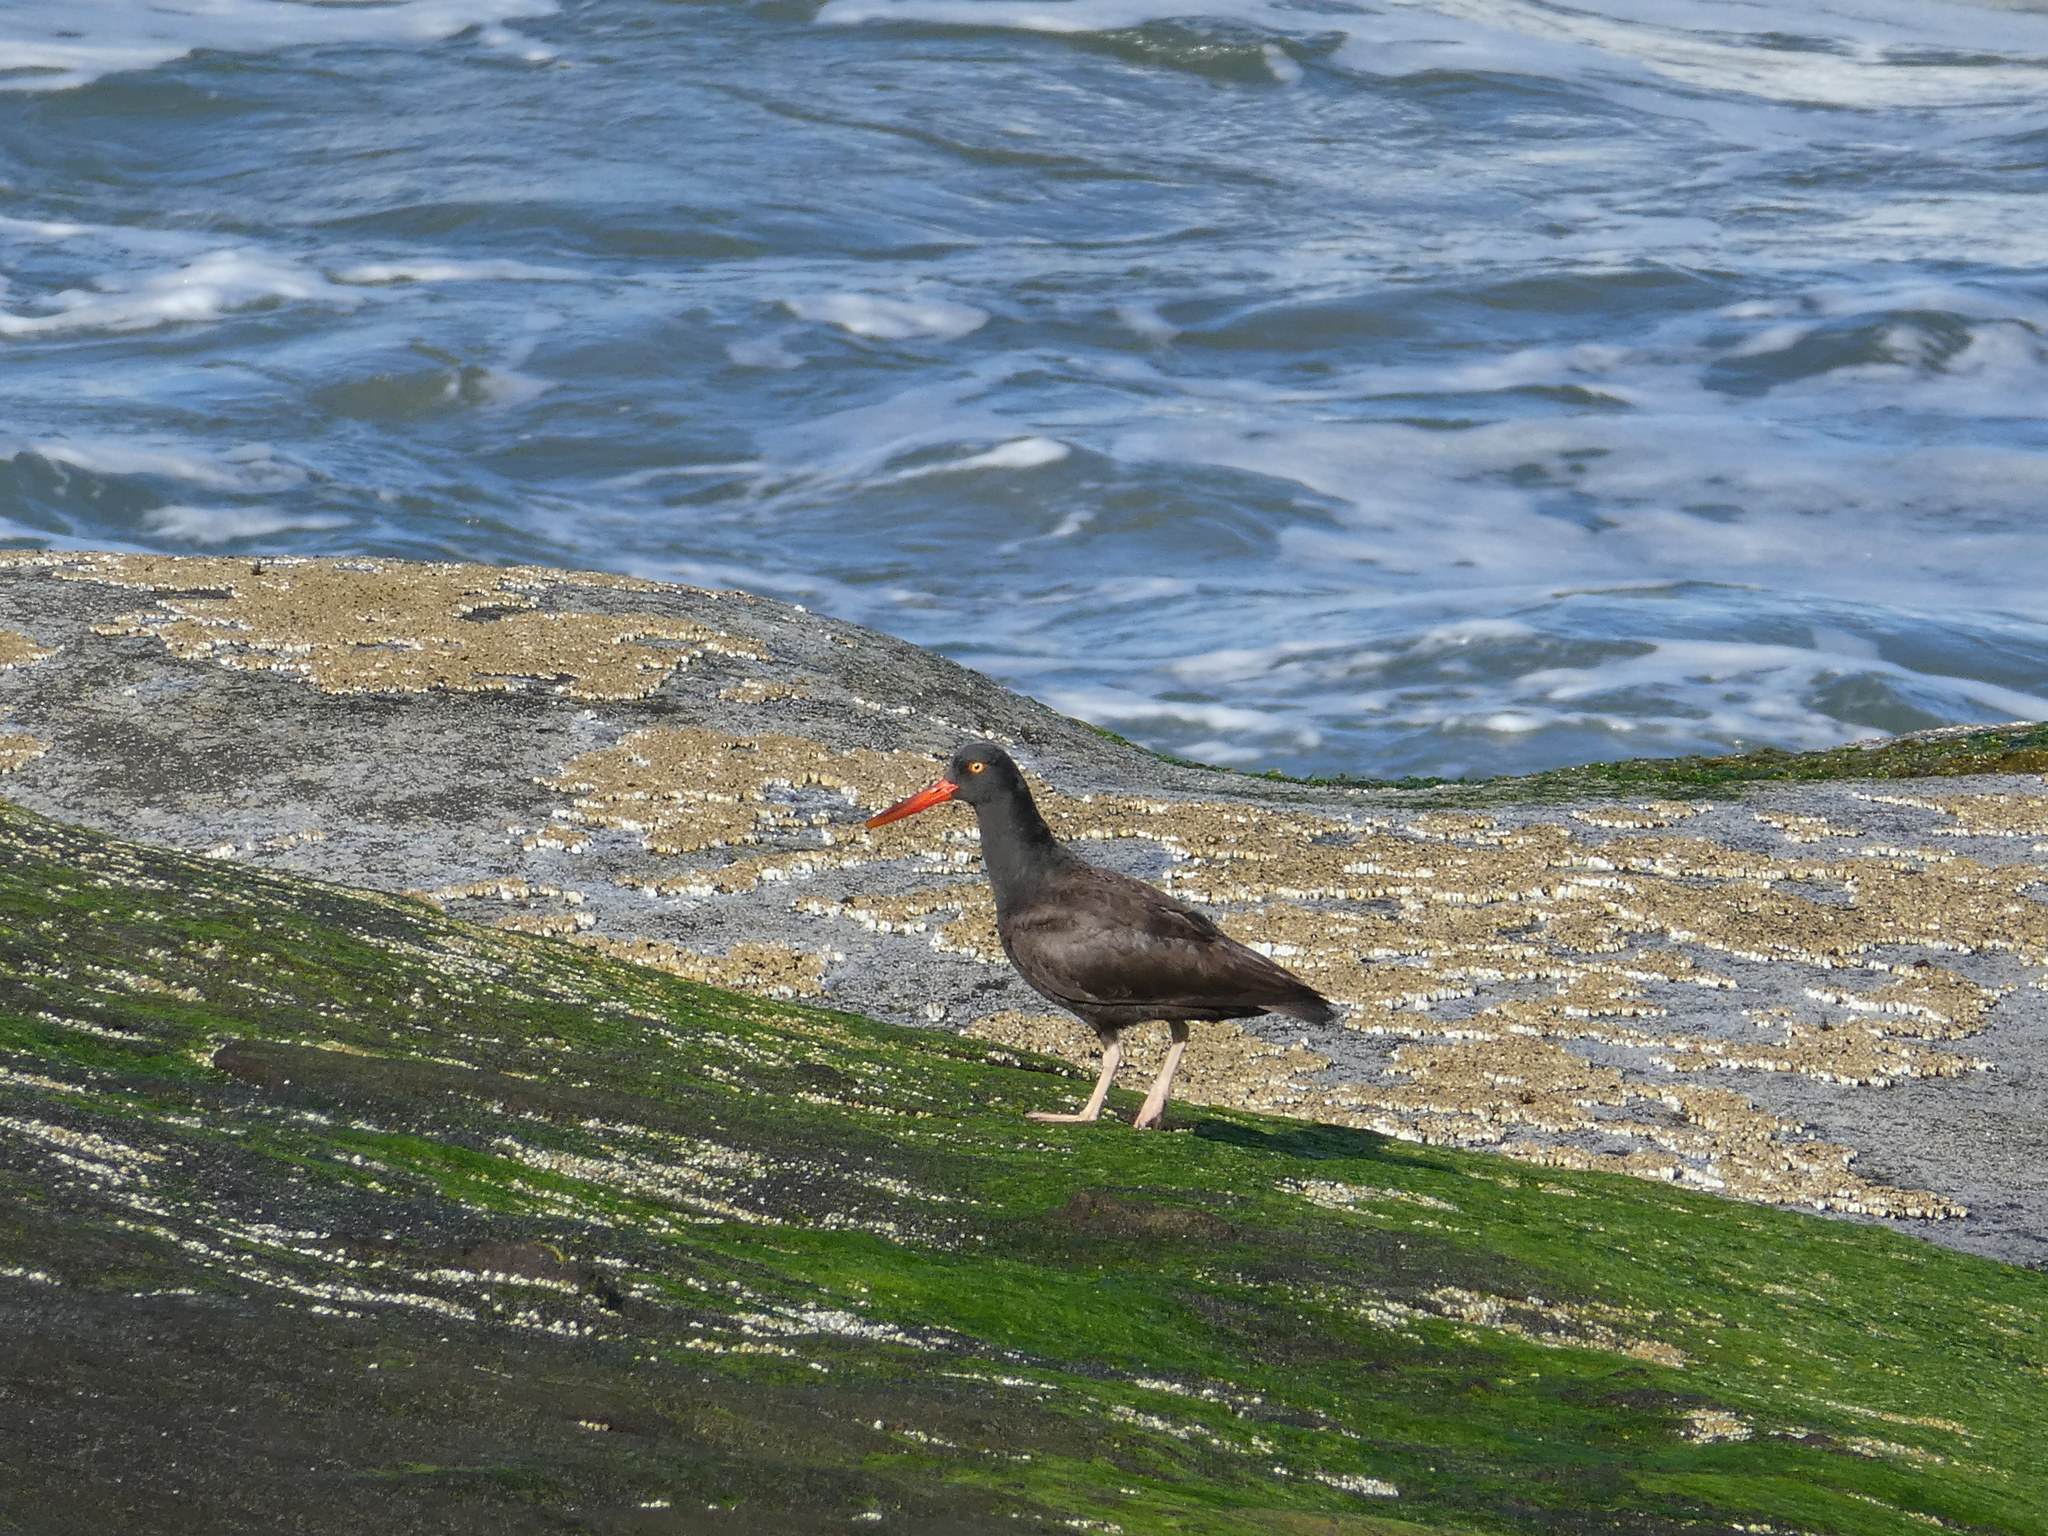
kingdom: Animalia
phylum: Chordata
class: Aves
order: Charadriiformes
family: Haematopodidae
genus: Haematopus
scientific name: Haematopus bachmani
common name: Black oystercatcher
